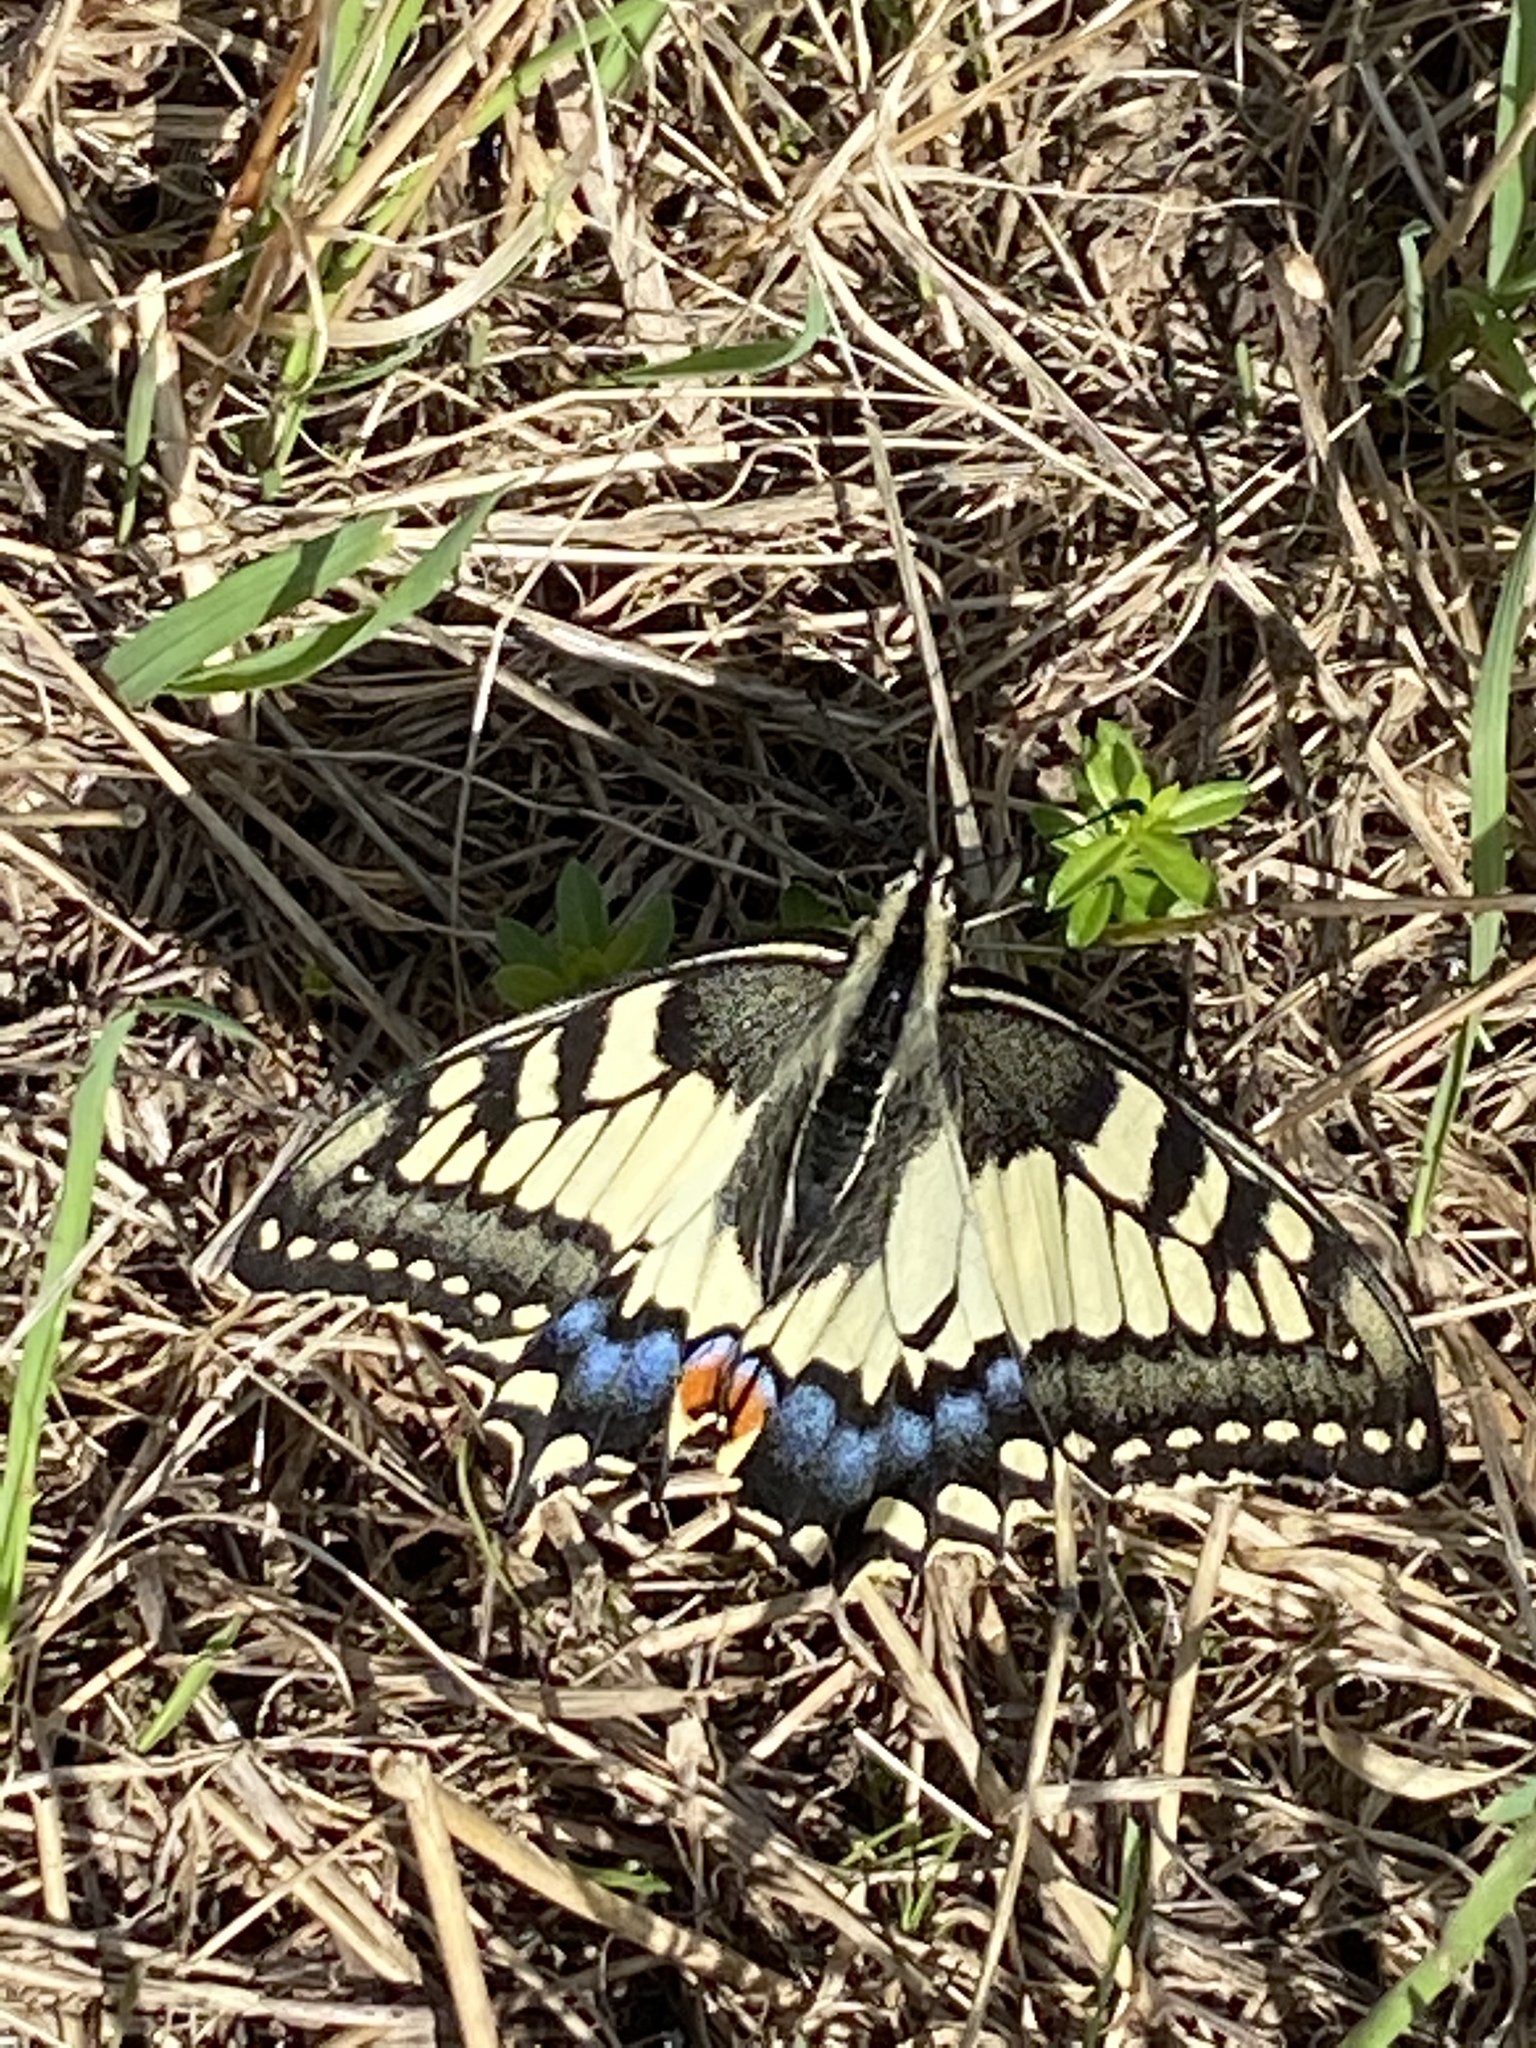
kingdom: Animalia
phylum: Arthropoda
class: Insecta
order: Lepidoptera
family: Papilionidae
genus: Papilio
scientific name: Papilio machaon
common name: Swallowtail
